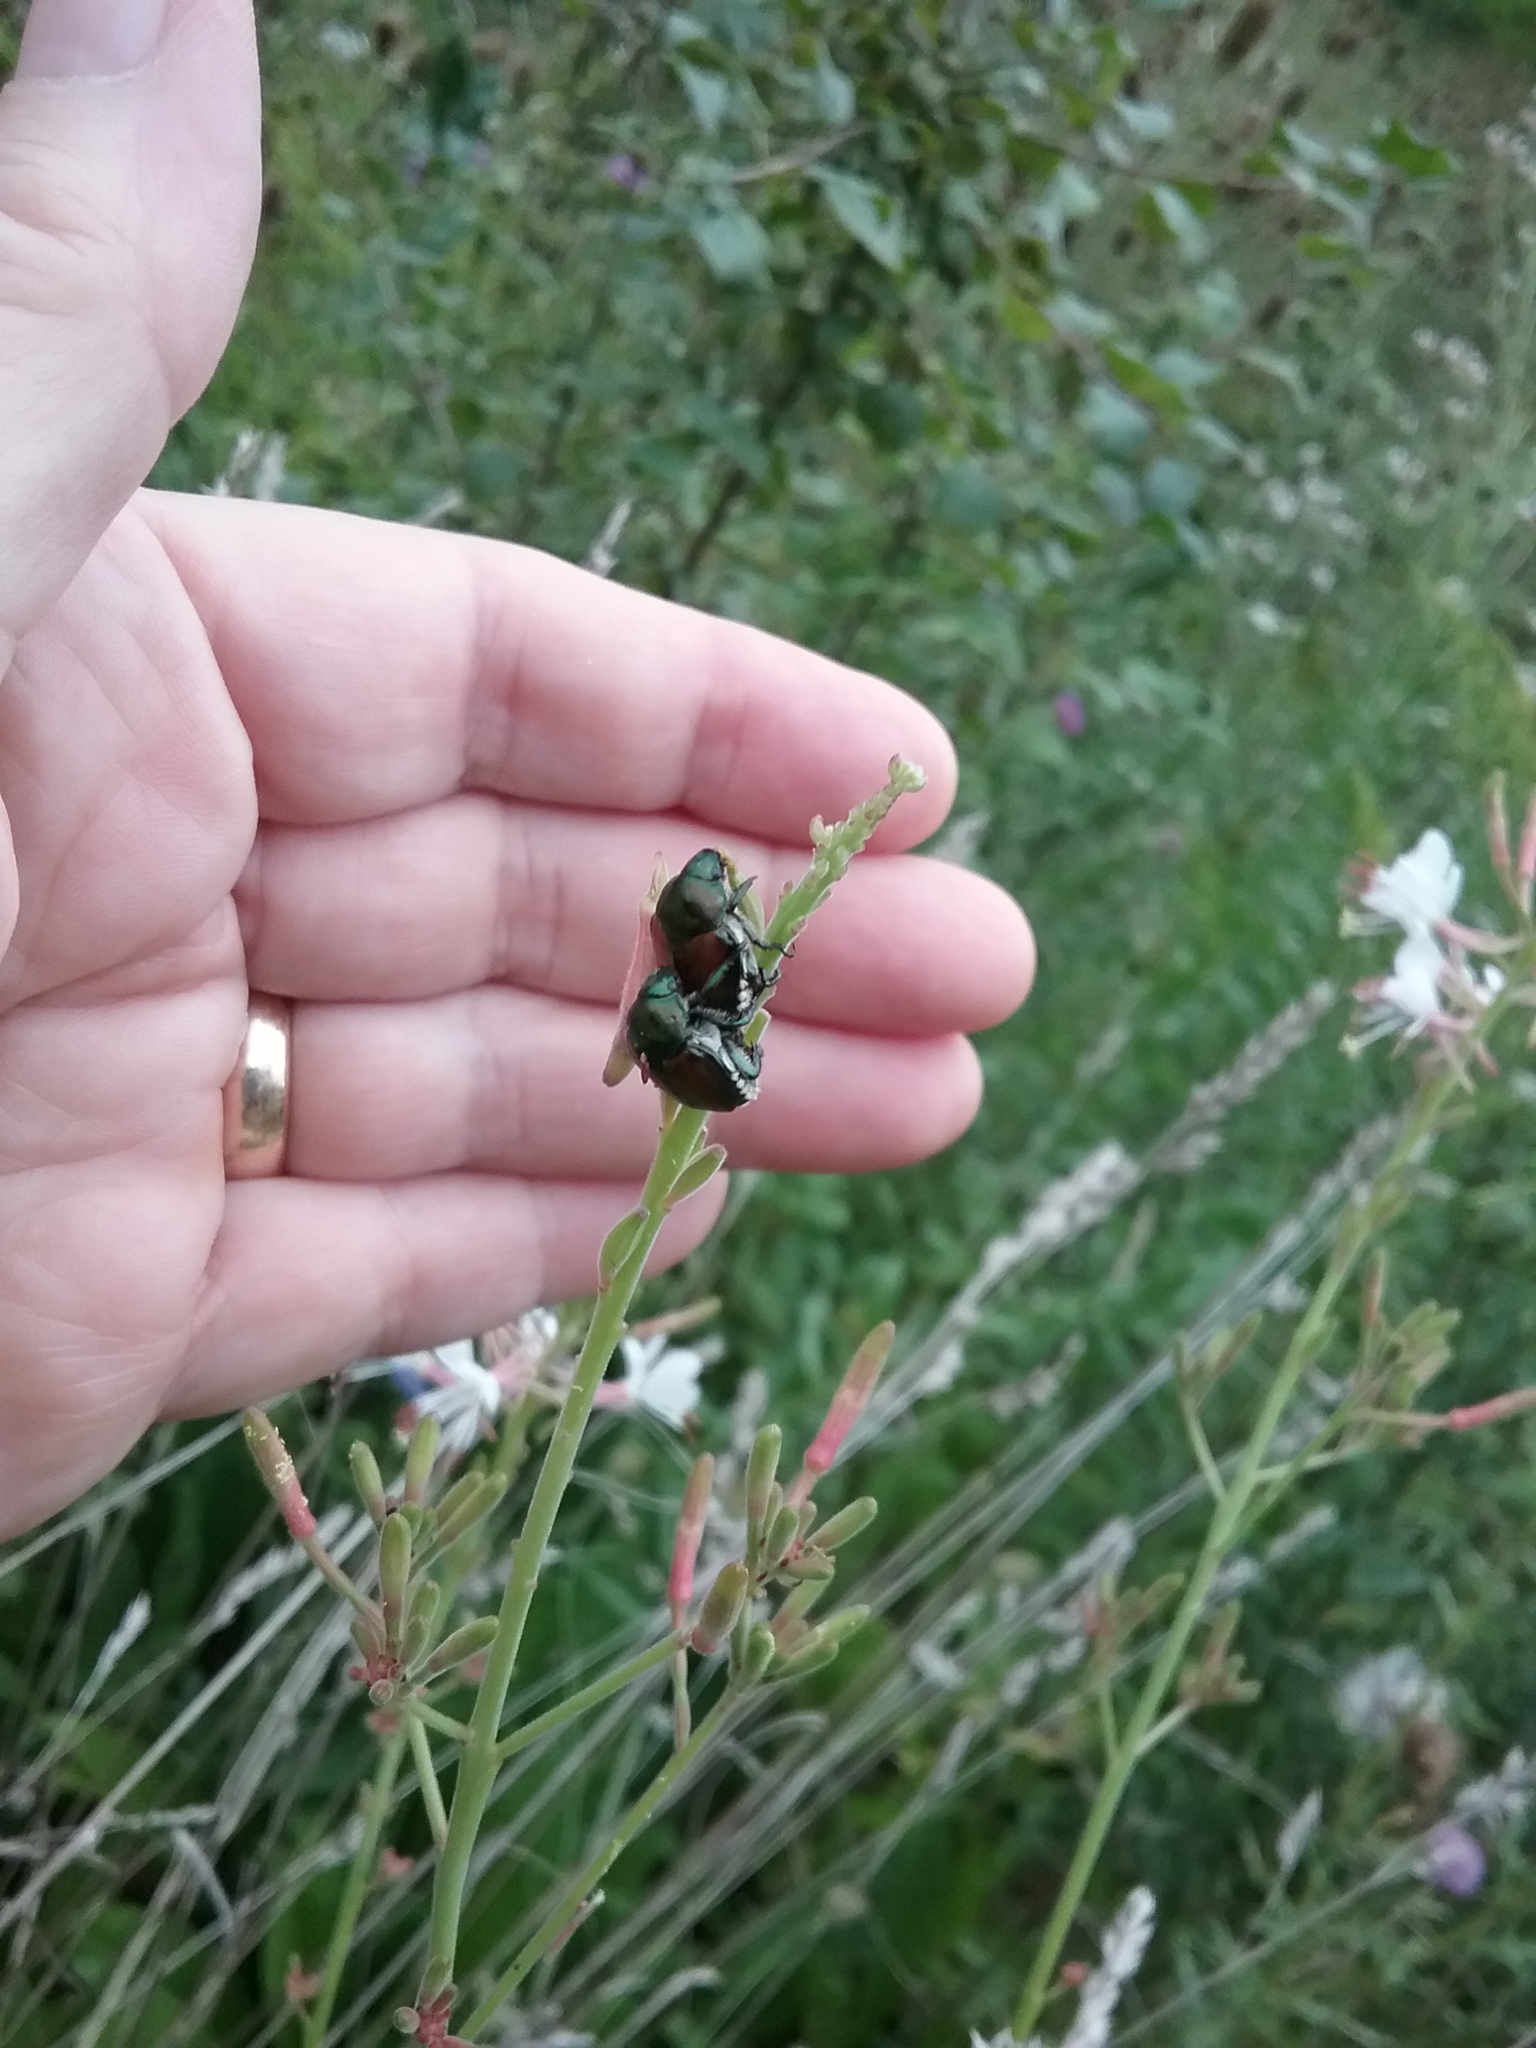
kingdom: Animalia
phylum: Arthropoda
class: Insecta
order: Coleoptera
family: Scarabaeidae
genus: Popillia
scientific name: Popillia japonica
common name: Japanese beetle
